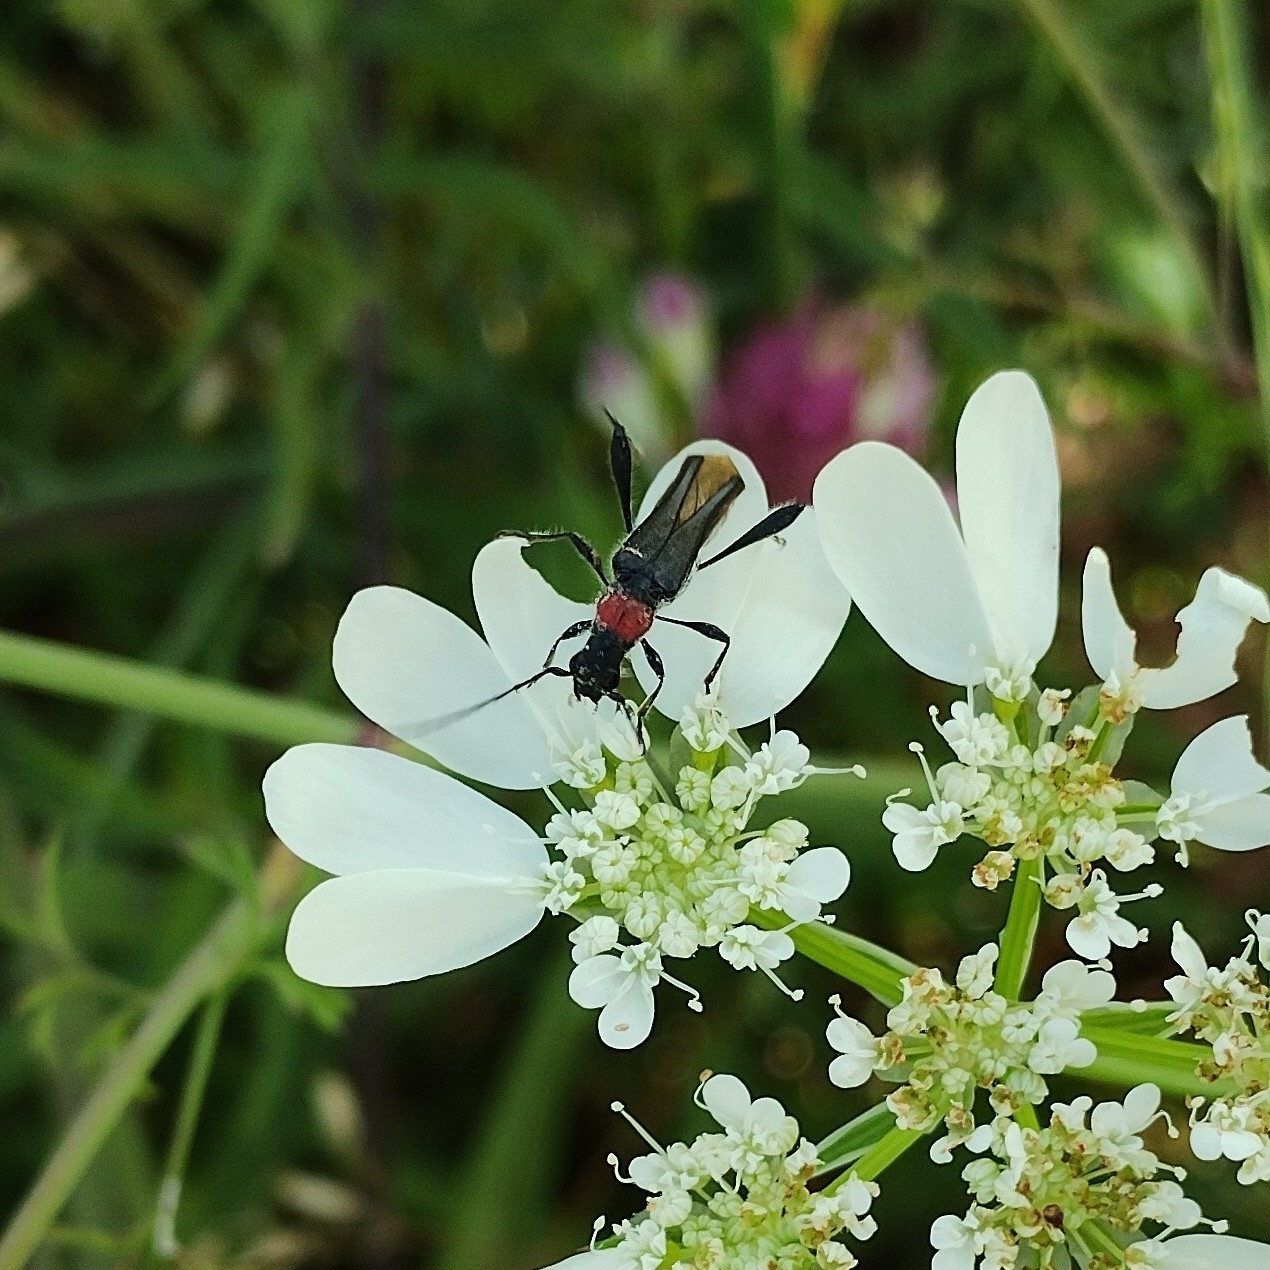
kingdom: Animalia
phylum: Arthropoda
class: Insecta
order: Coleoptera
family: Cerambycidae
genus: Callimoxys
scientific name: Callimoxys gracilis
